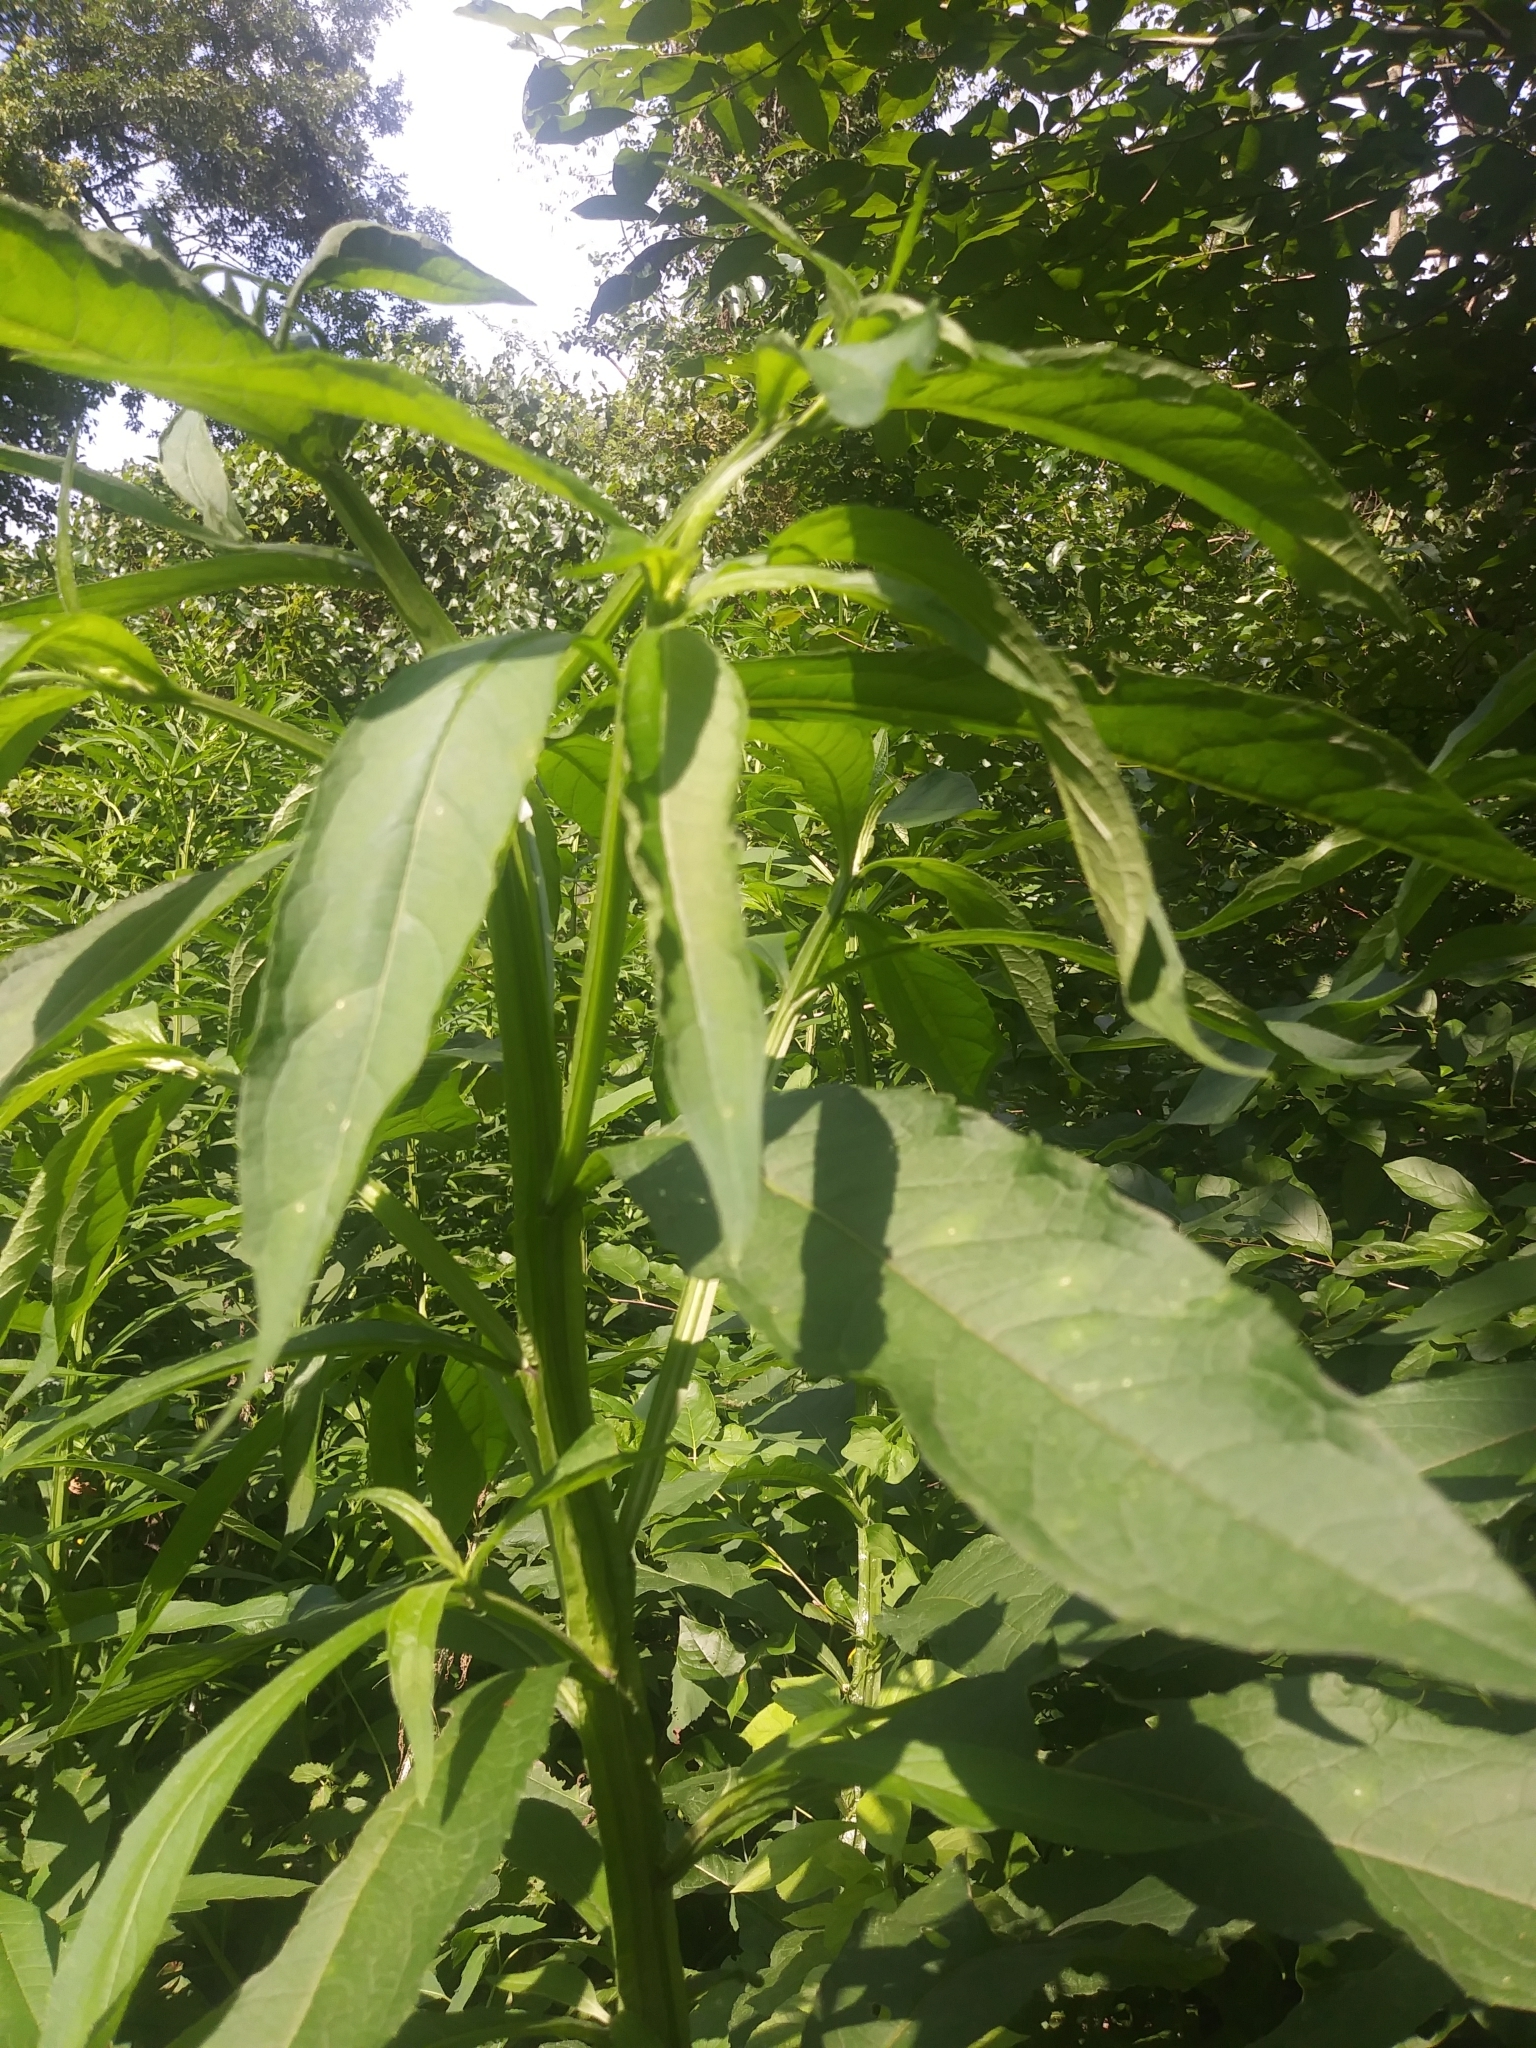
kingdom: Plantae
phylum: Tracheophyta
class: Magnoliopsida
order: Asterales
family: Asteraceae
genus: Verbesina
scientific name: Verbesina alternifolia
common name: Wingstem
